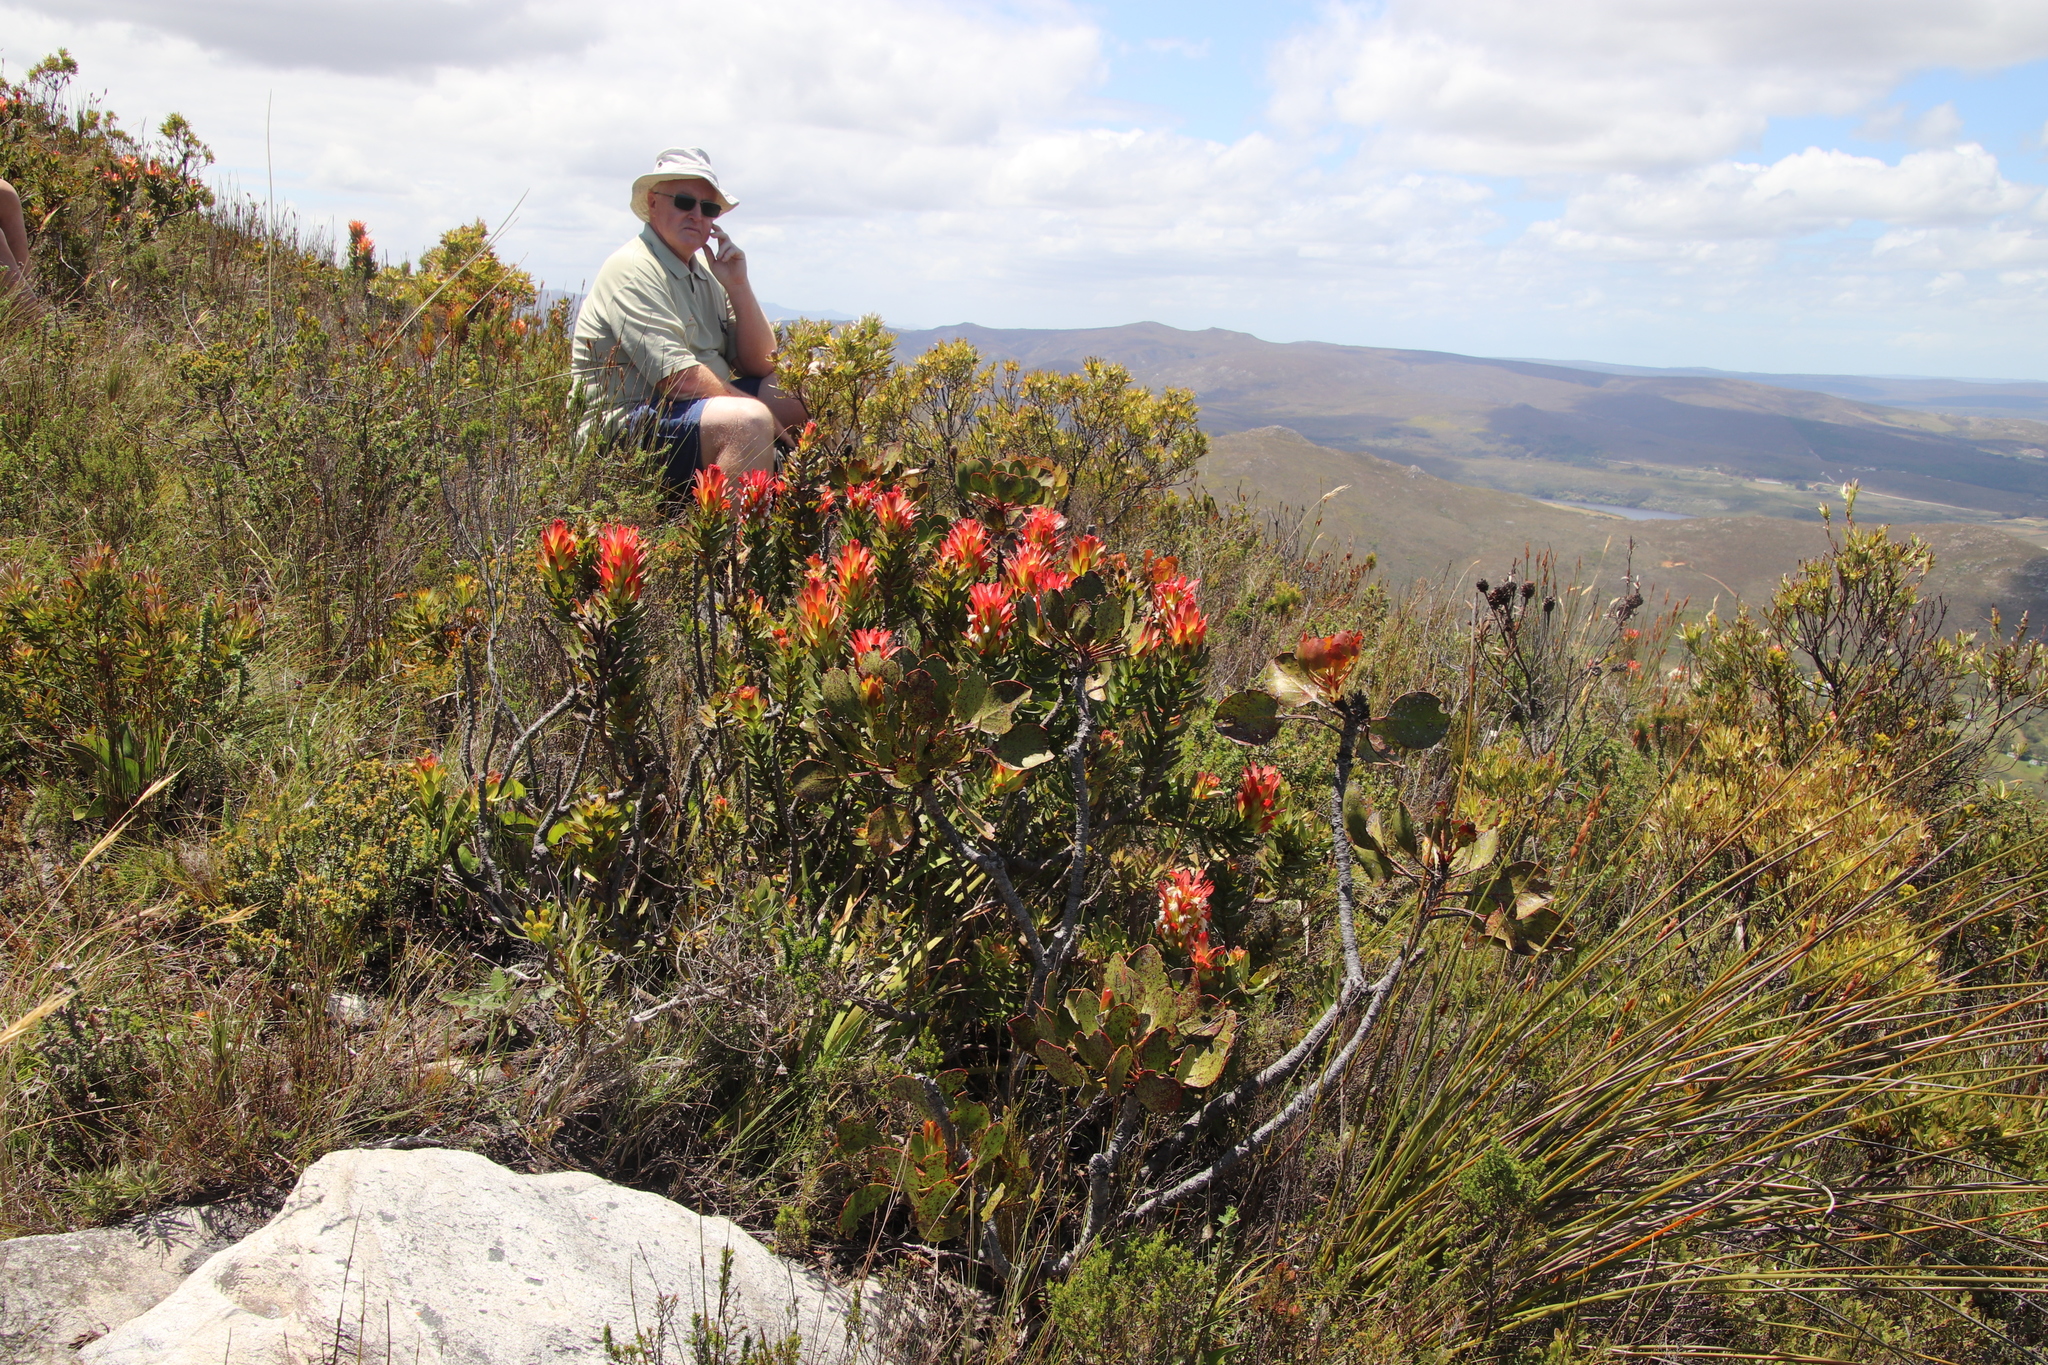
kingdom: Plantae
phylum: Tracheophyta
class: Magnoliopsida
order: Proteales
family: Proteaceae
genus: Mimetes
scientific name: Mimetes cucullatus
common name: Common pagoda
